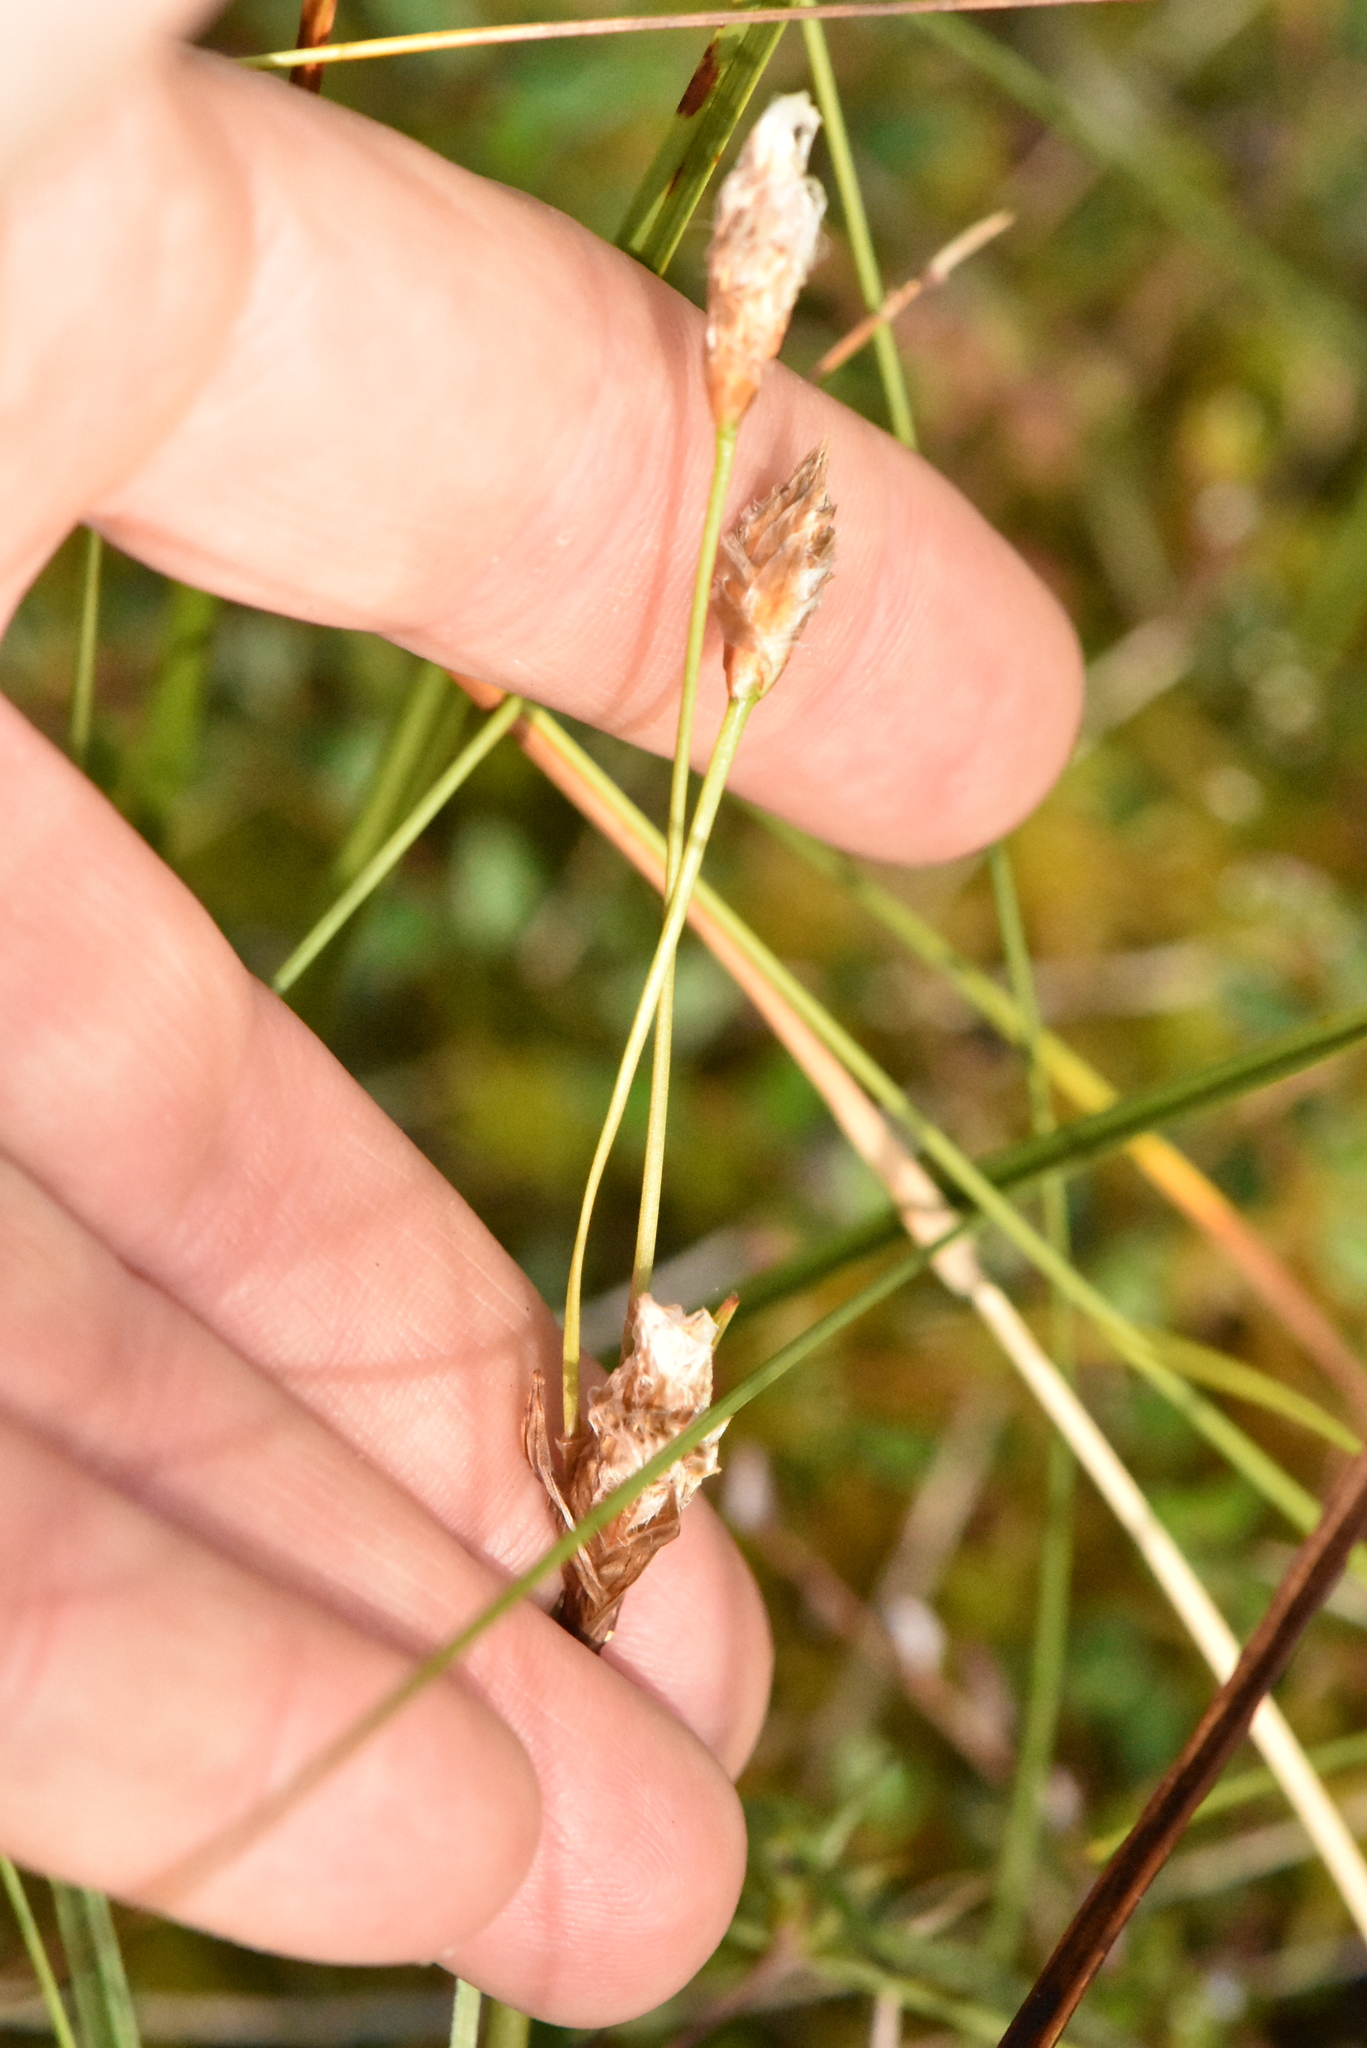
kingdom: Plantae
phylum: Tracheophyta
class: Liliopsida
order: Poales
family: Cyperaceae
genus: Eriophorum
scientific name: Eriophorum angustifolium
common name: Common cottongrass
